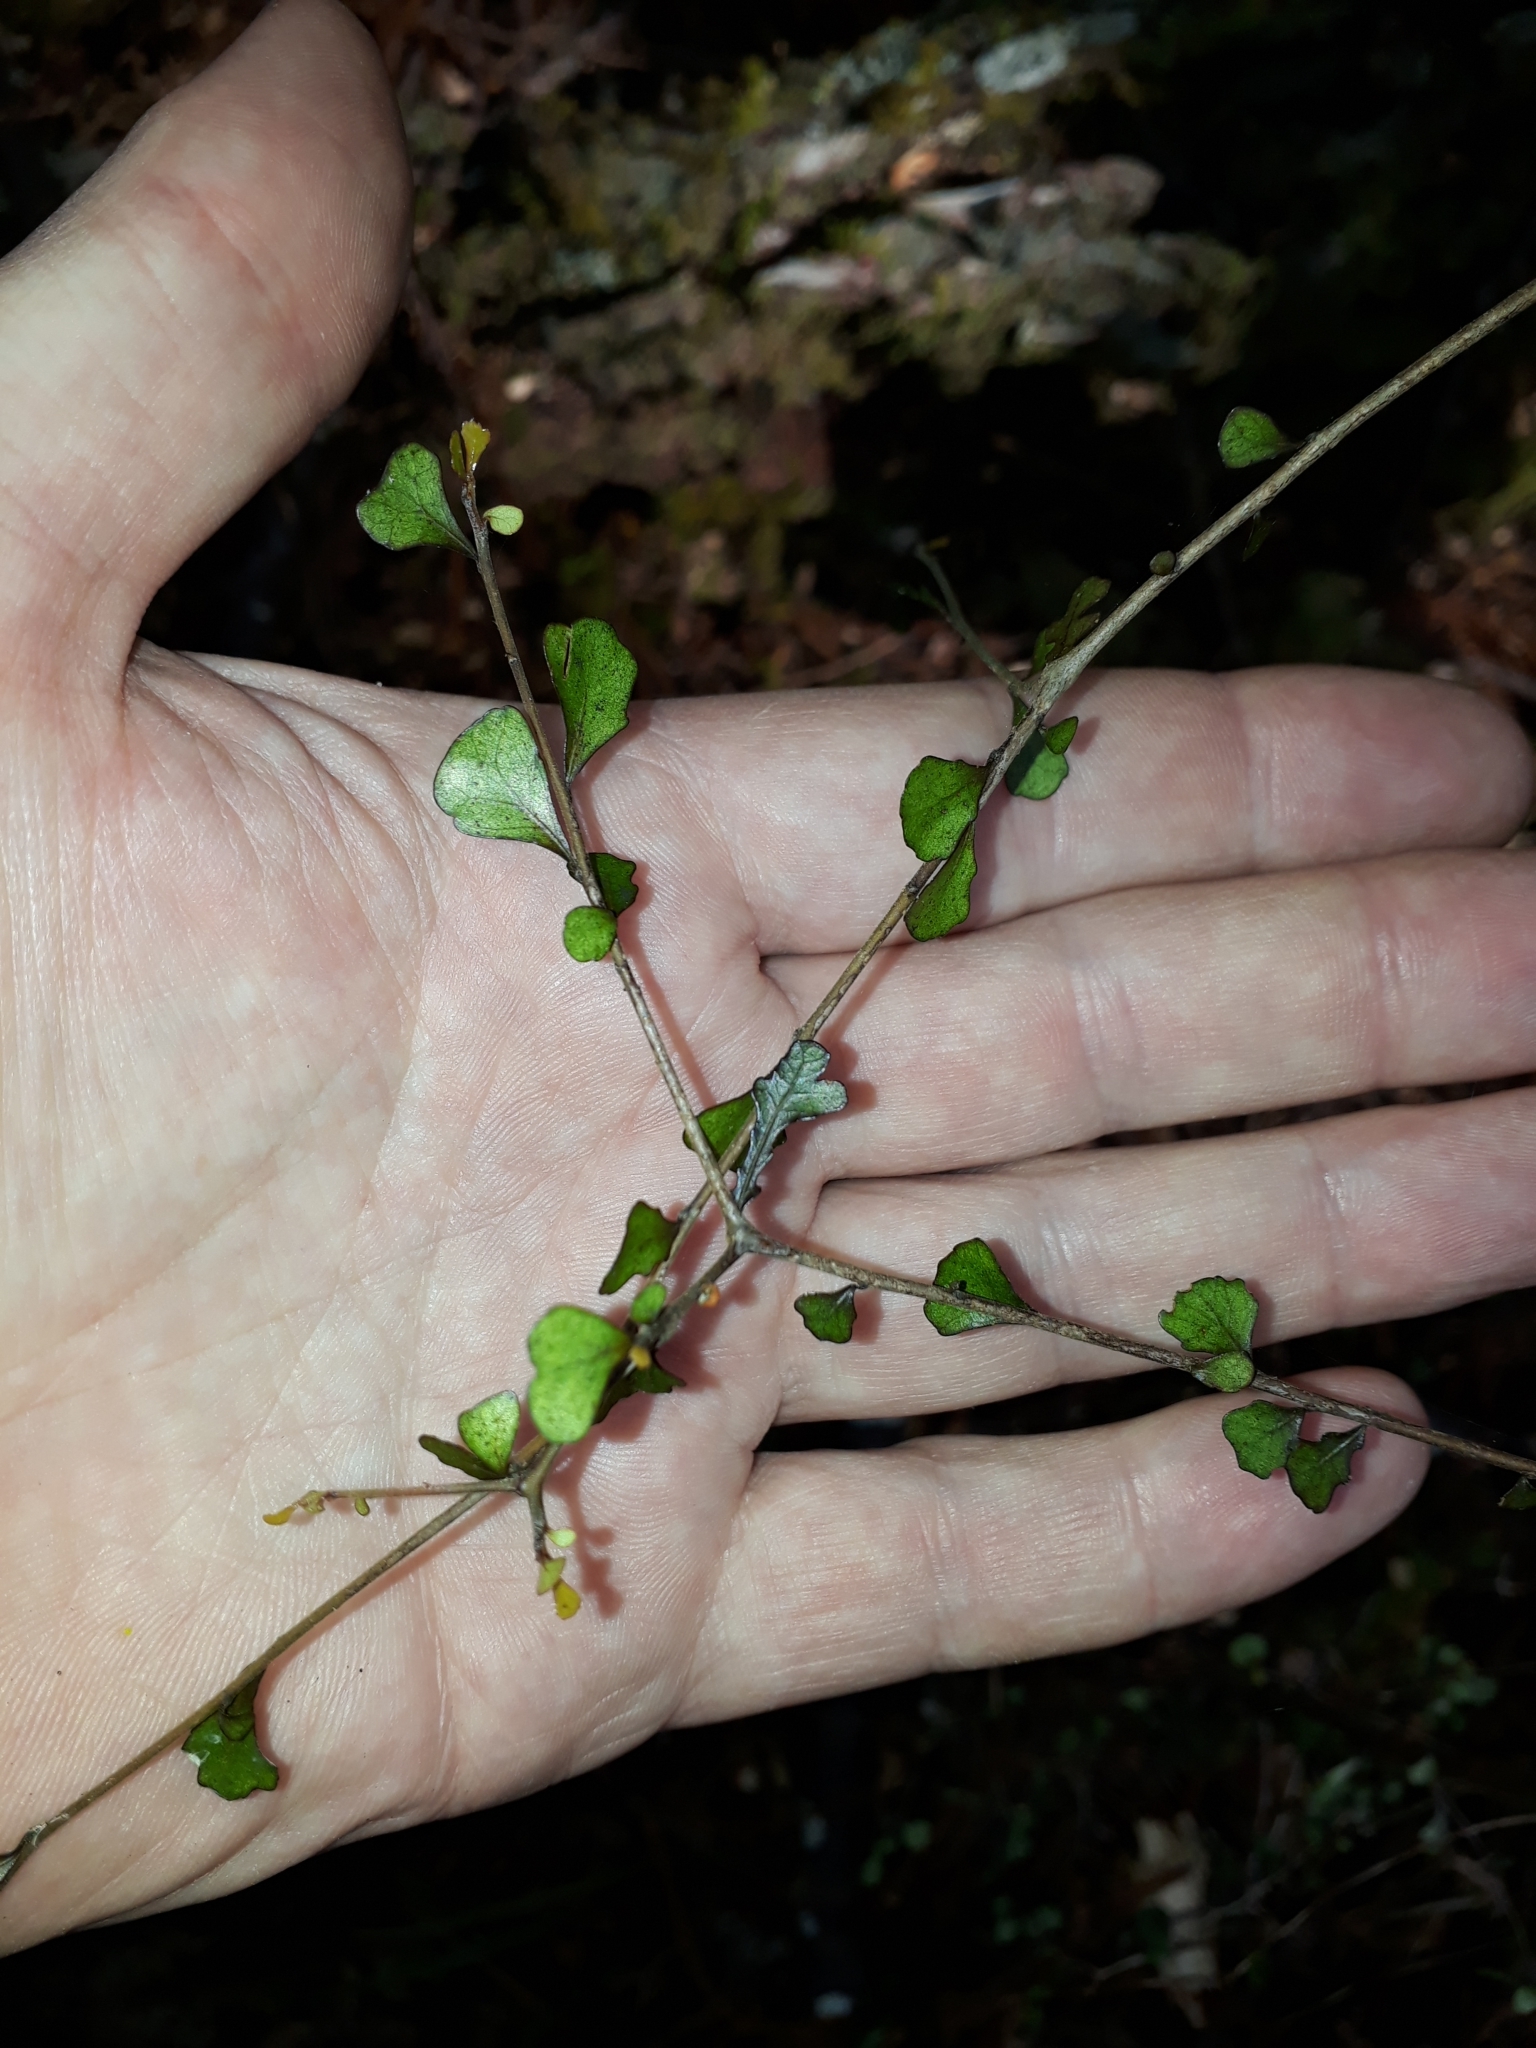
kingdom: Plantae
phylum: Tracheophyta
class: Magnoliopsida
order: Oxalidales
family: Elaeocarpaceae
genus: Elaeocarpus
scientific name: Elaeocarpus hookerianus
